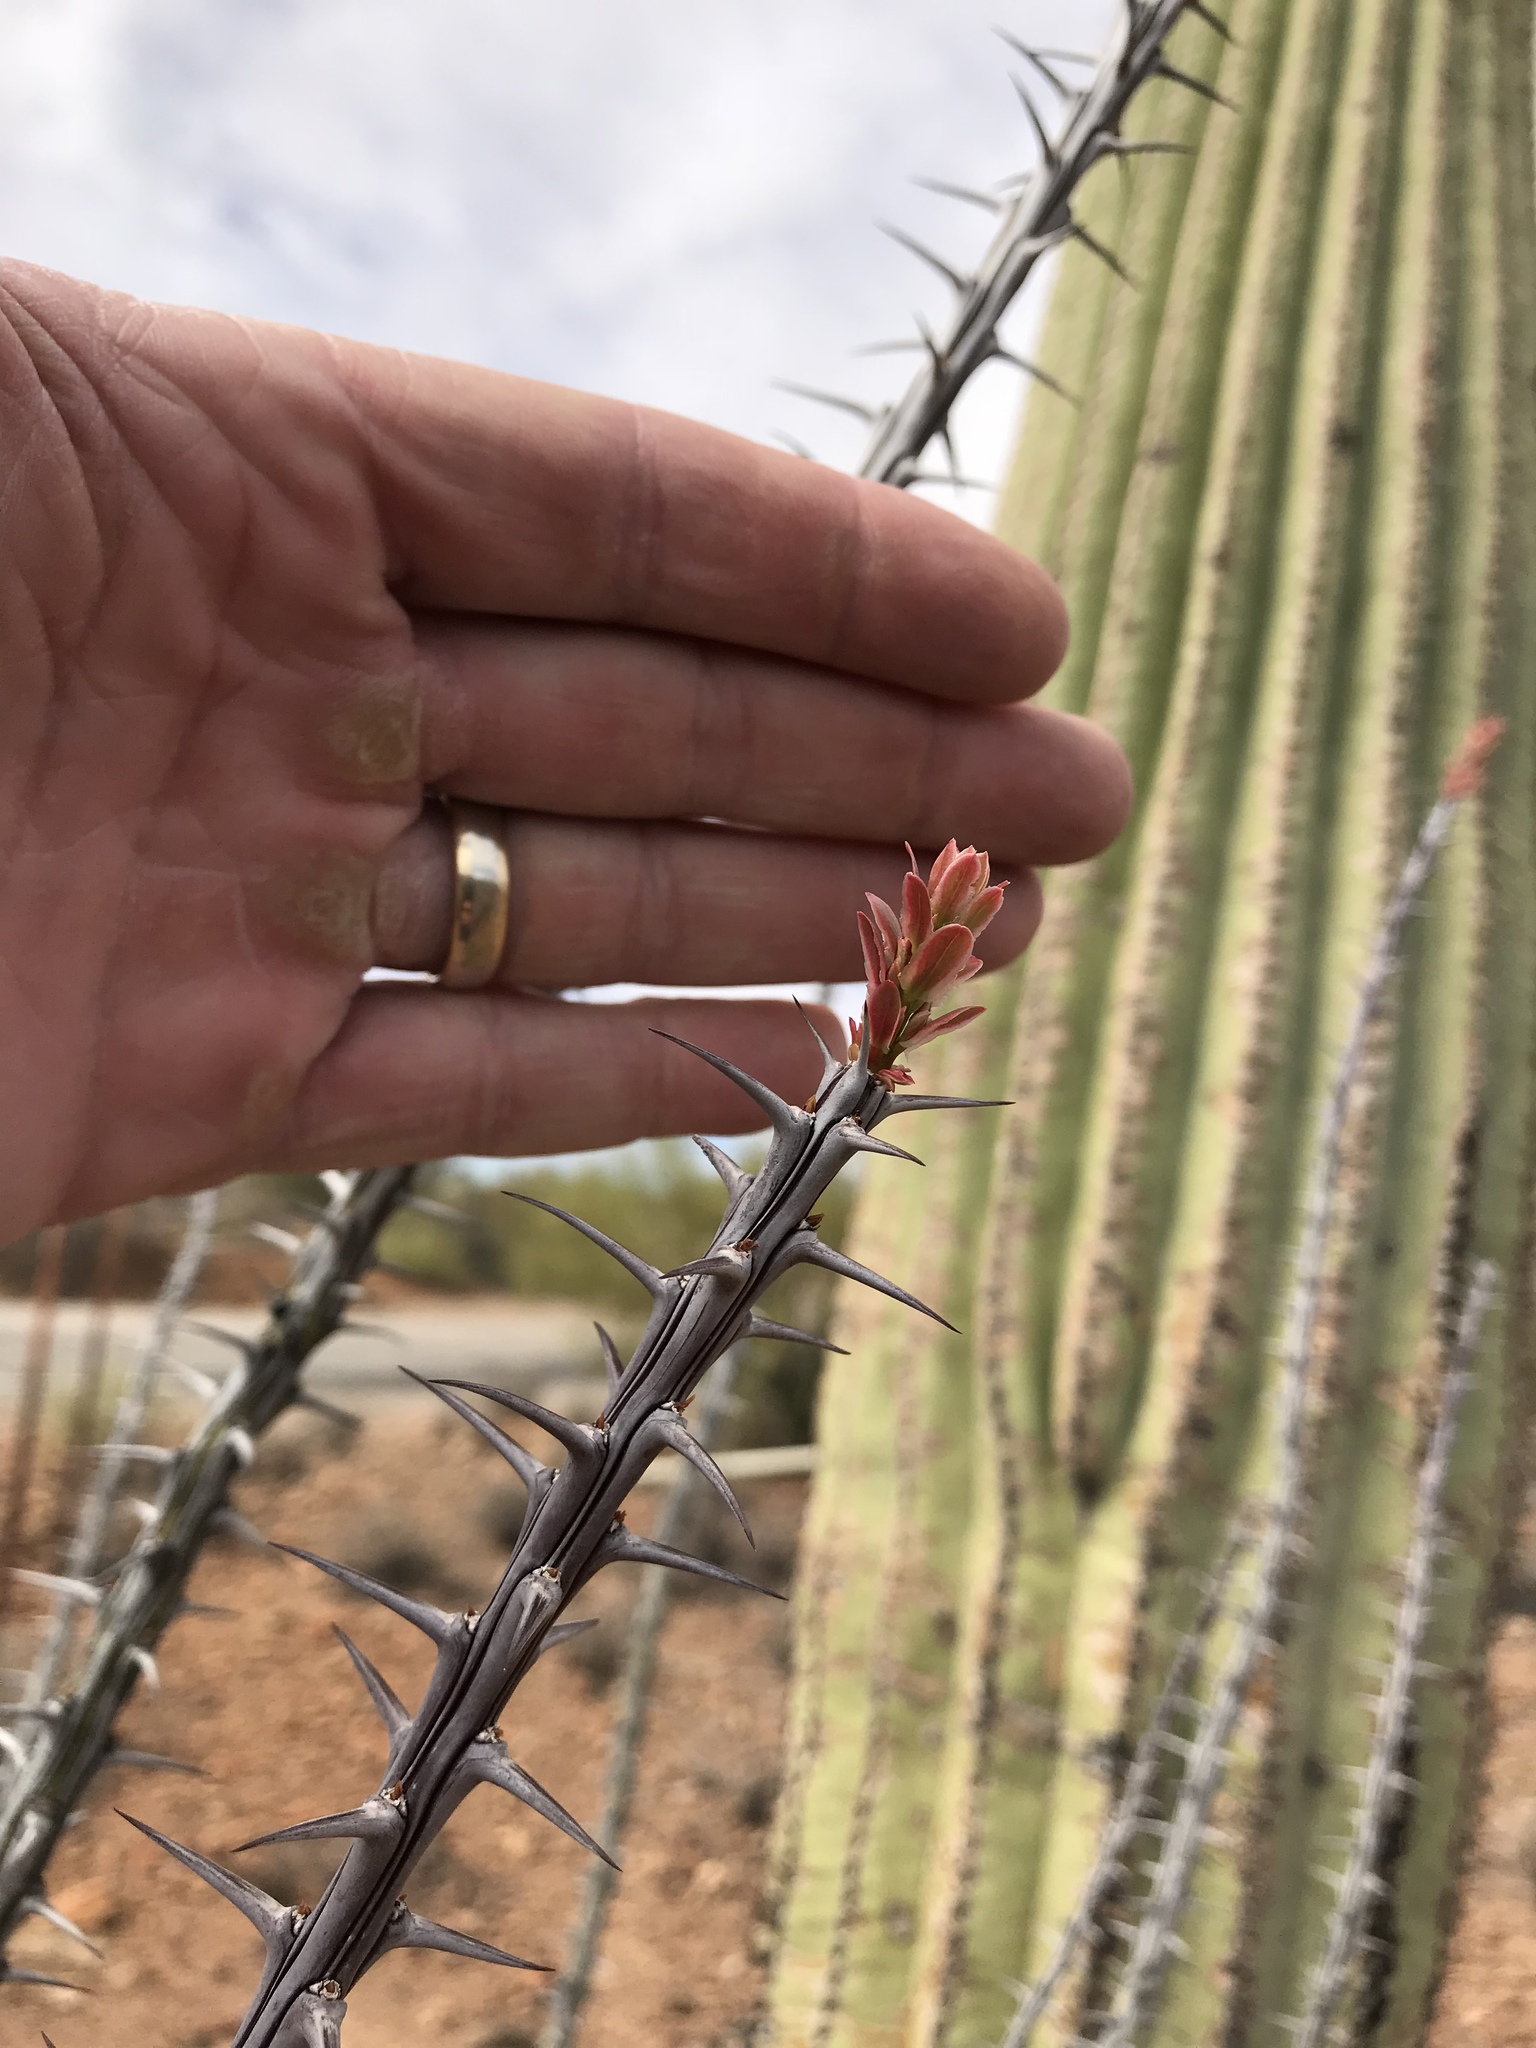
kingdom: Plantae
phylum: Tracheophyta
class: Magnoliopsida
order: Ericales
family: Fouquieriaceae
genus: Fouquieria
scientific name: Fouquieria splendens
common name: Vine-cactus
